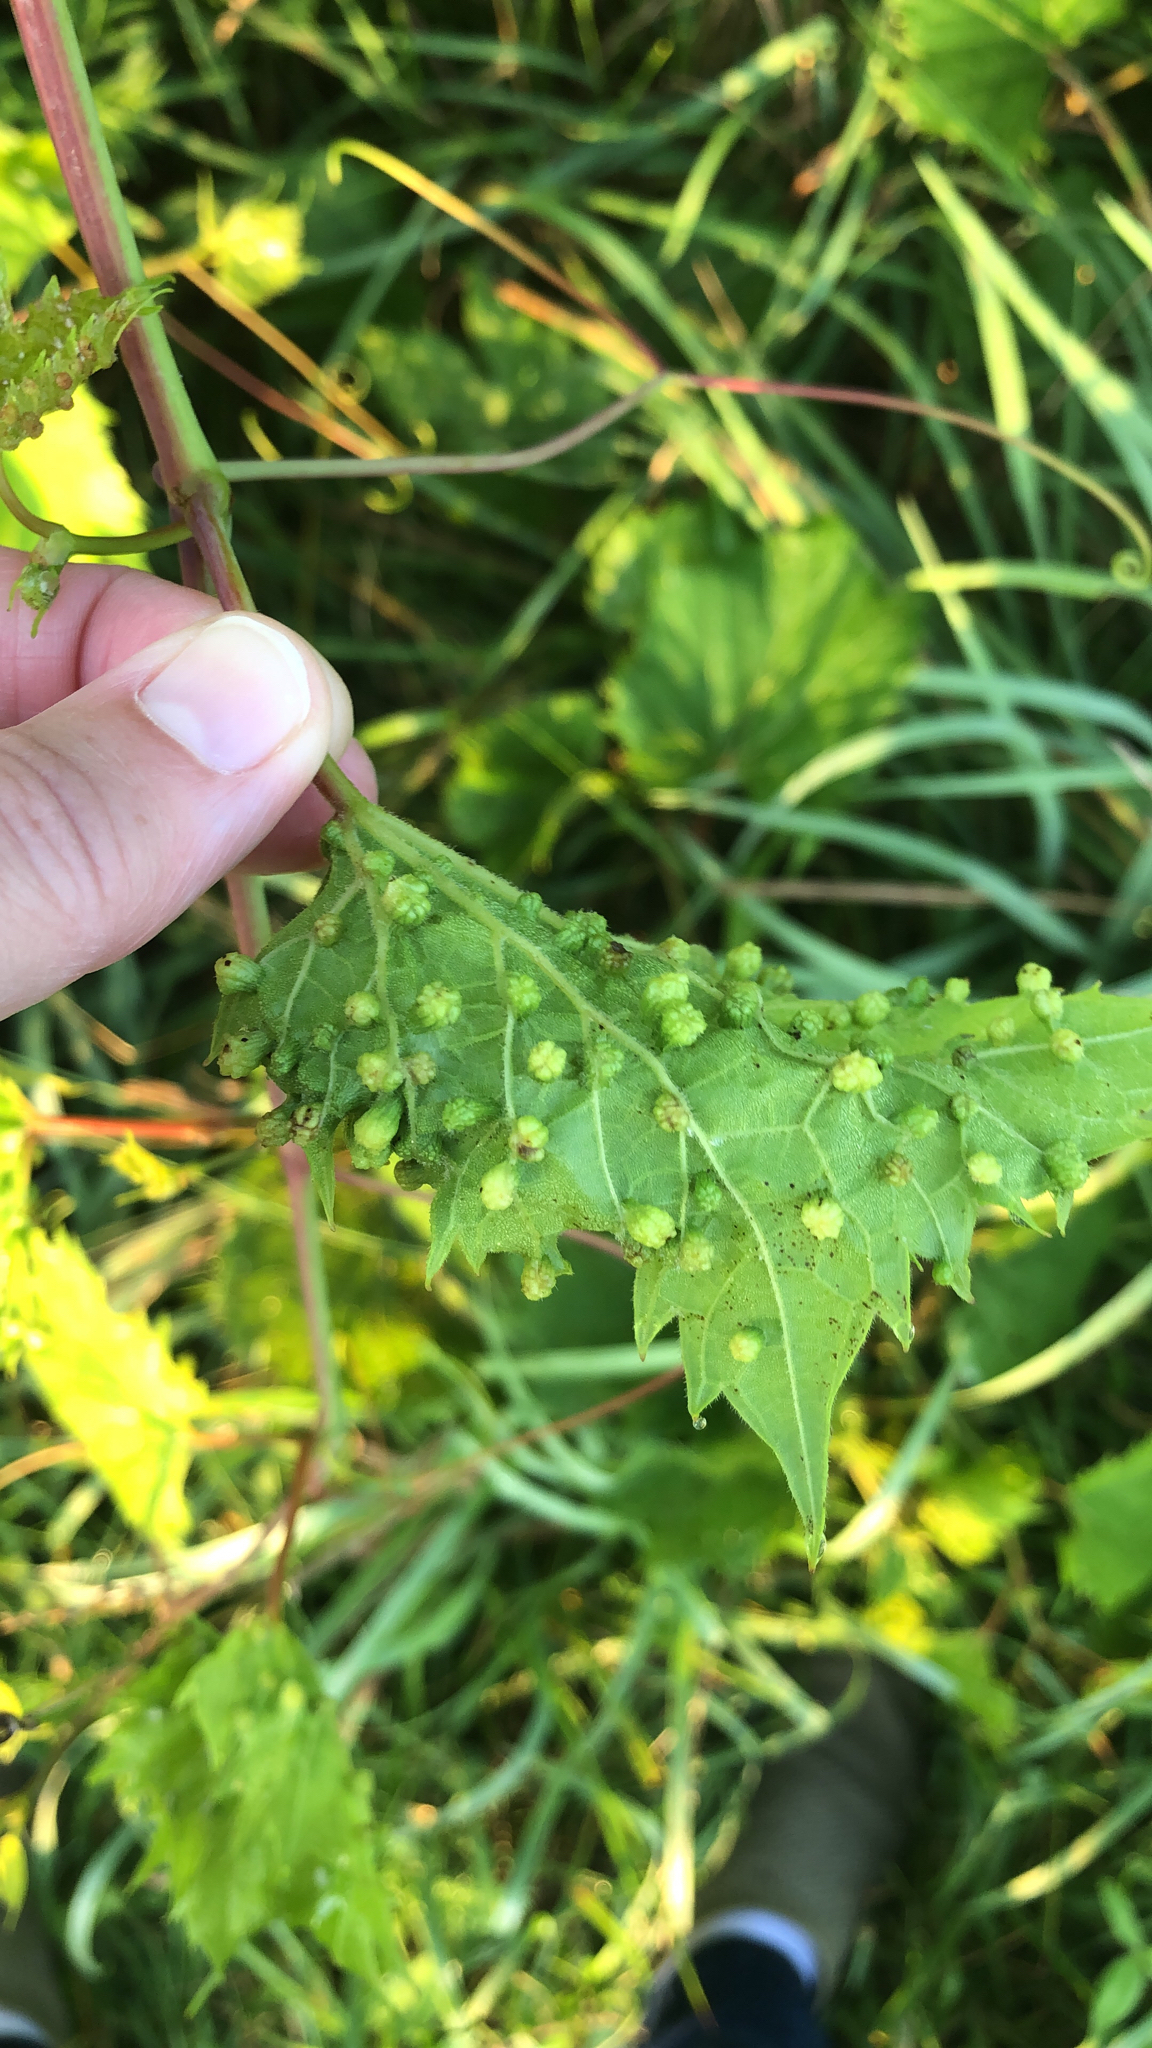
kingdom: Animalia
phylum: Arthropoda
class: Insecta
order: Hemiptera
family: Phylloxeridae
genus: Daktulosphaira
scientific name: Daktulosphaira vitifoliae
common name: Grape phylloxera
